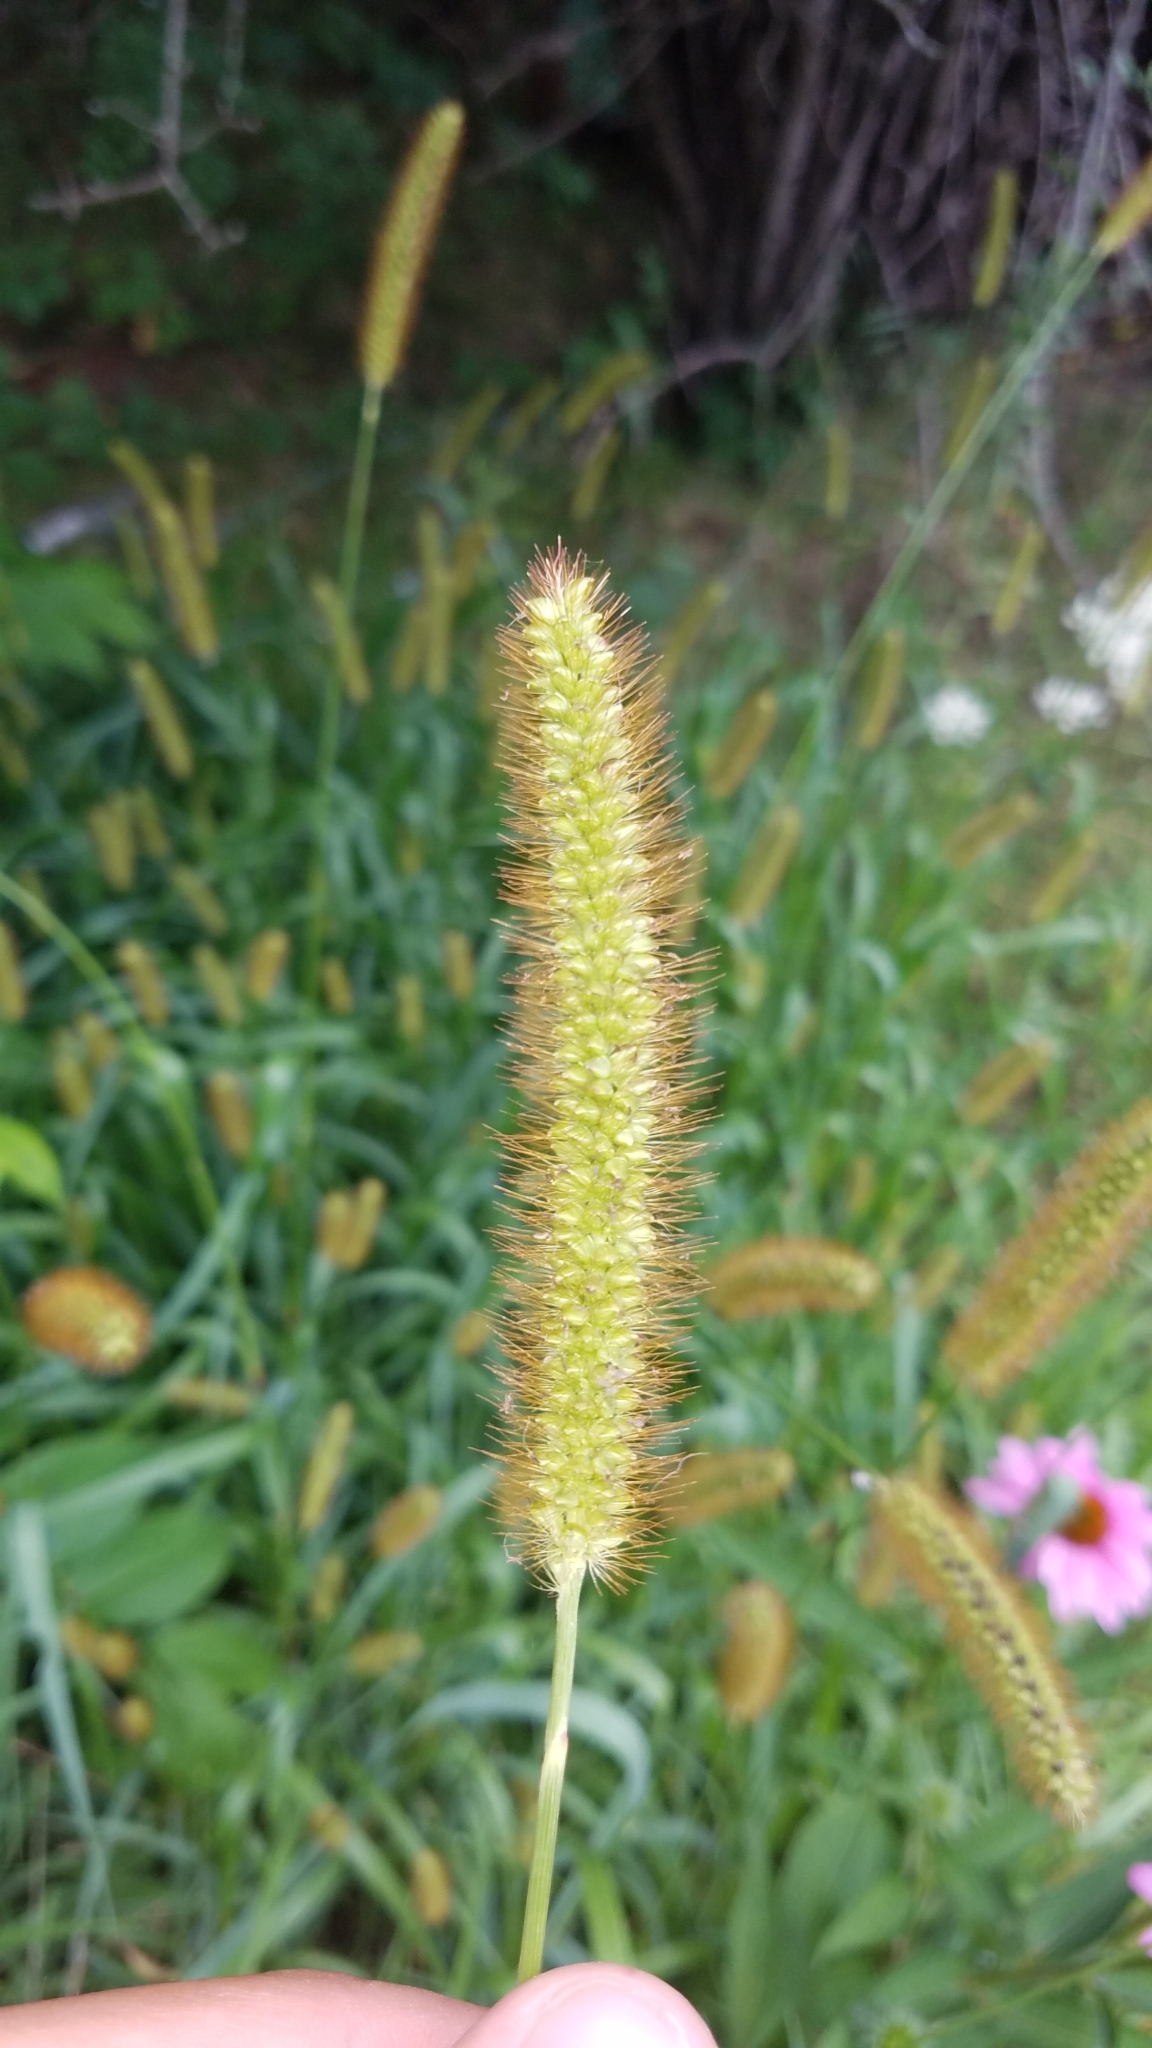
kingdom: Plantae
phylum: Tracheophyta
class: Liliopsida
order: Poales
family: Poaceae
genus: Setaria
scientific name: Setaria pumila
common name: Yellow bristle-grass
